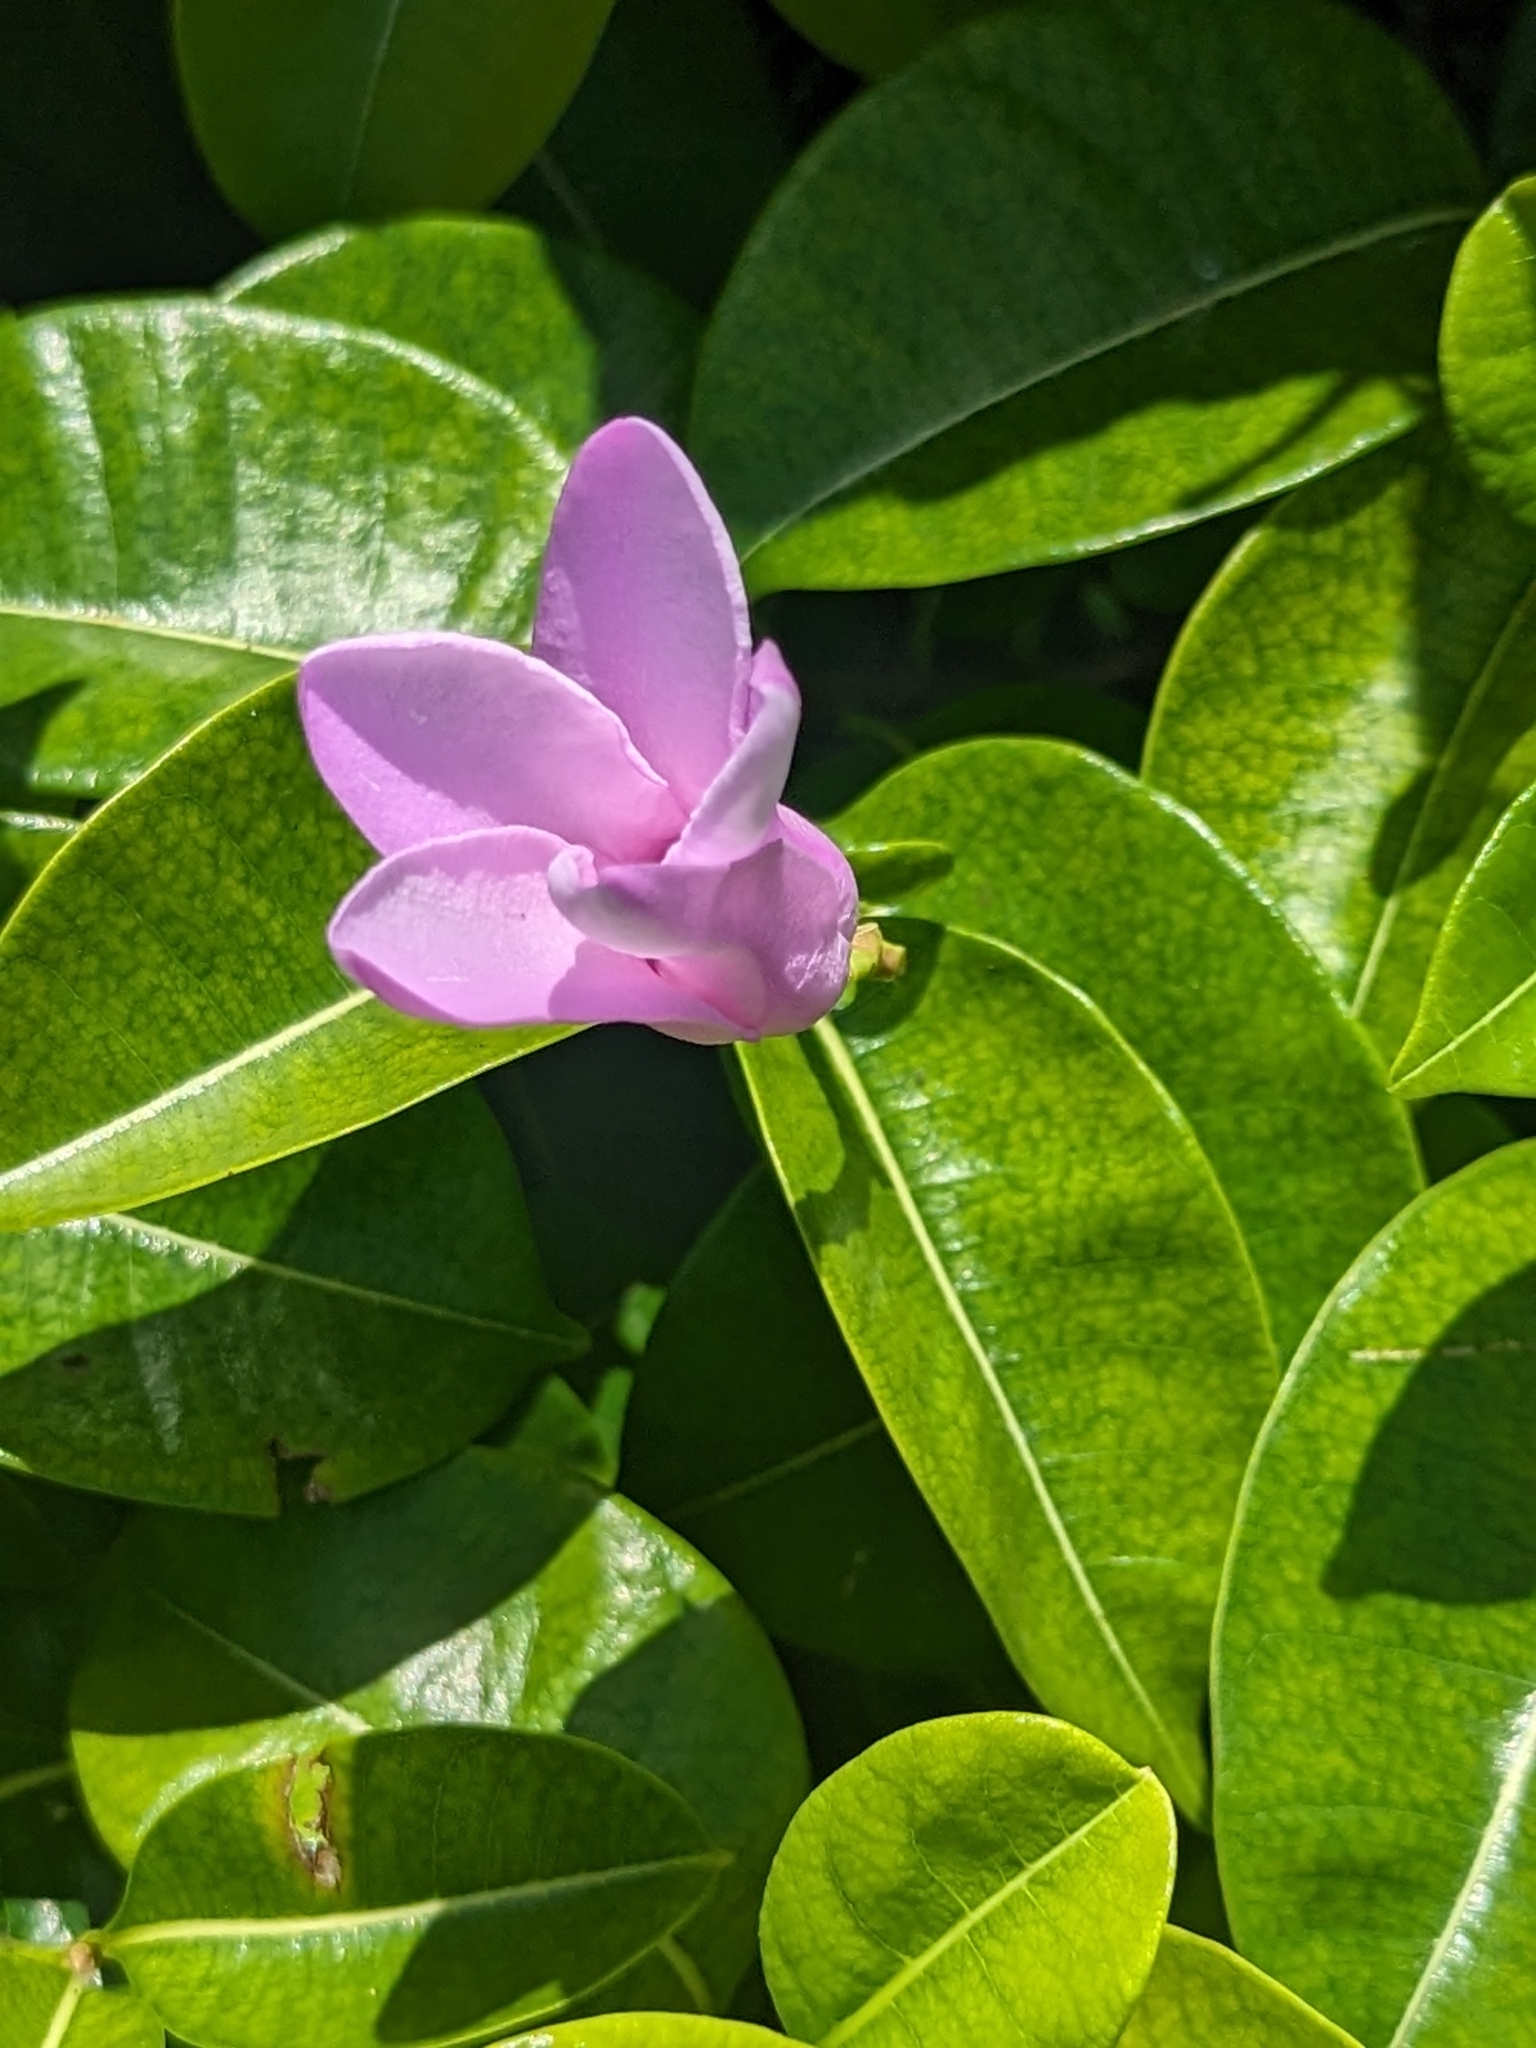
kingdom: Plantae
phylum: Tracheophyta
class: Magnoliopsida
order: Gentianales
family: Apocynaceae
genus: Cryptostegia
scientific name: Cryptostegia grandiflora
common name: Palay rubbervine
